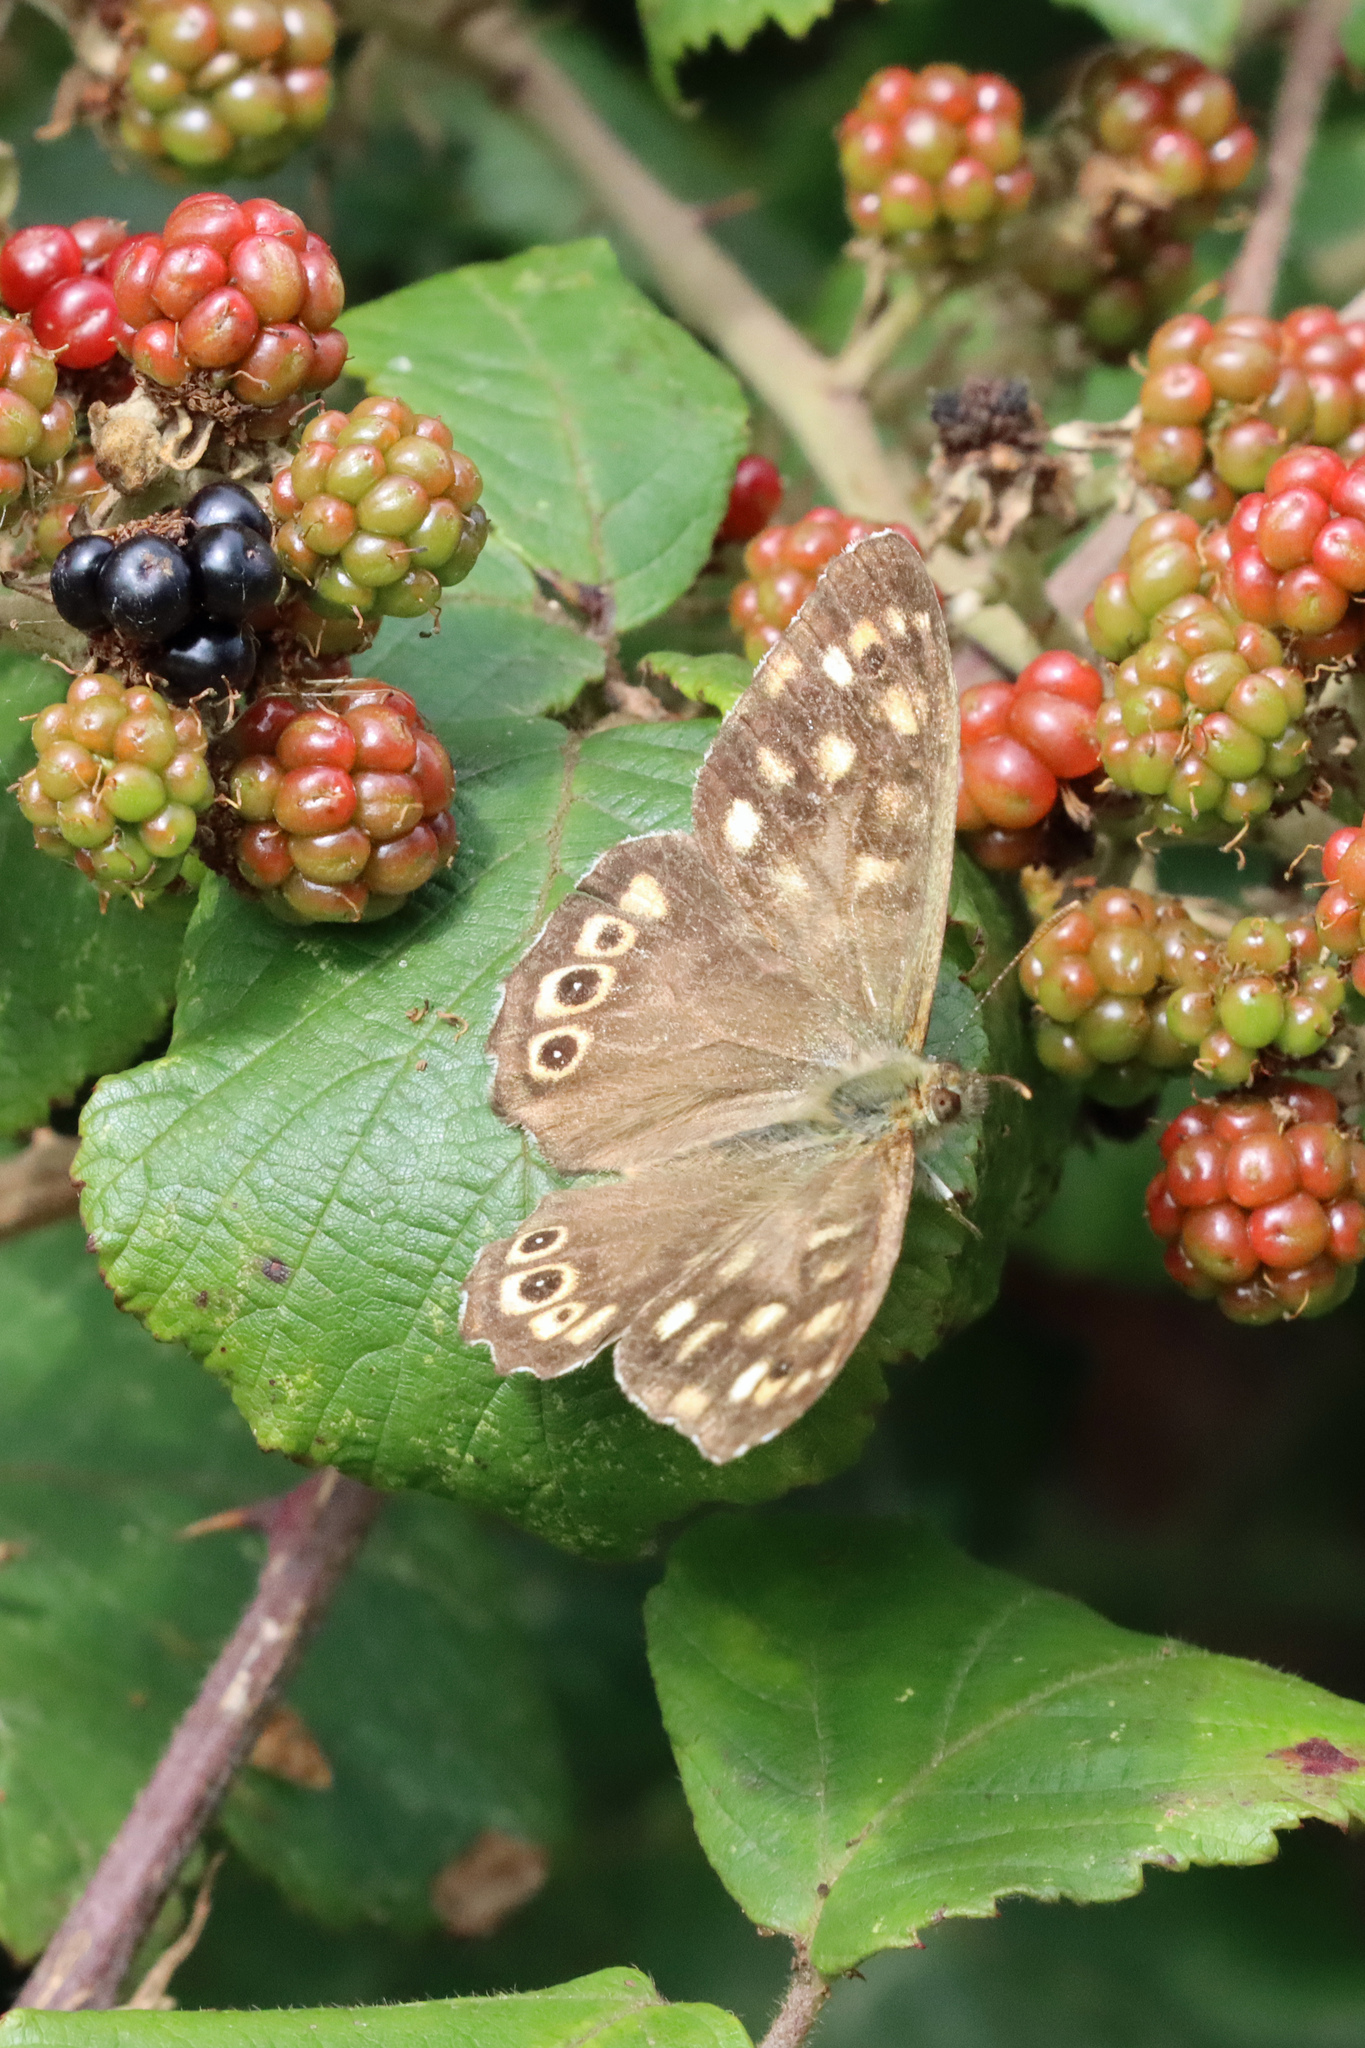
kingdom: Animalia
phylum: Arthropoda
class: Insecta
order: Lepidoptera
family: Nymphalidae
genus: Pararge
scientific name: Pararge aegeria
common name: Speckled wood
